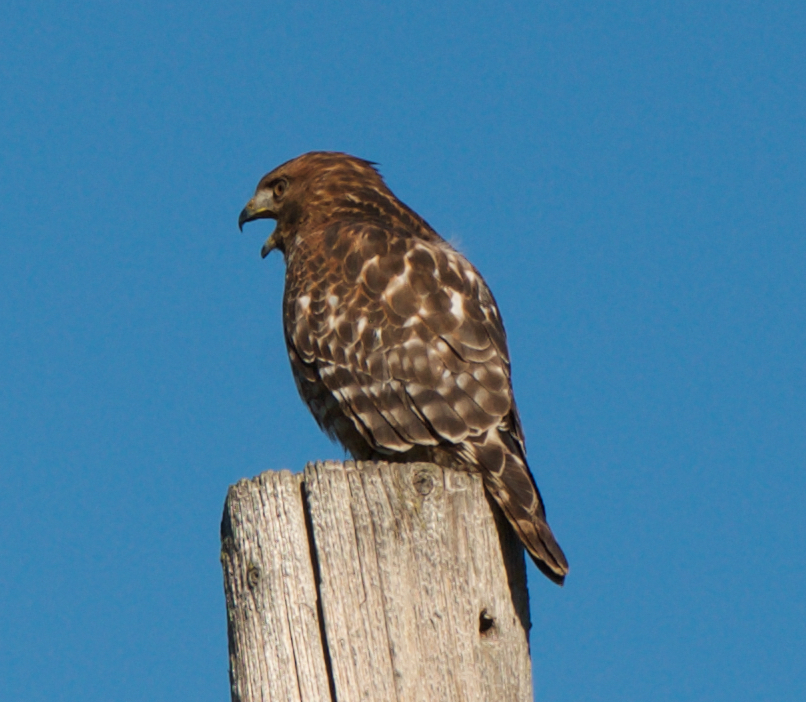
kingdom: Animalia
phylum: Chordata
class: Aves
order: Accipitriformes
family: Accipitridae
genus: Buteo
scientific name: Buteo lineatus
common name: Red-shouldered hawk
